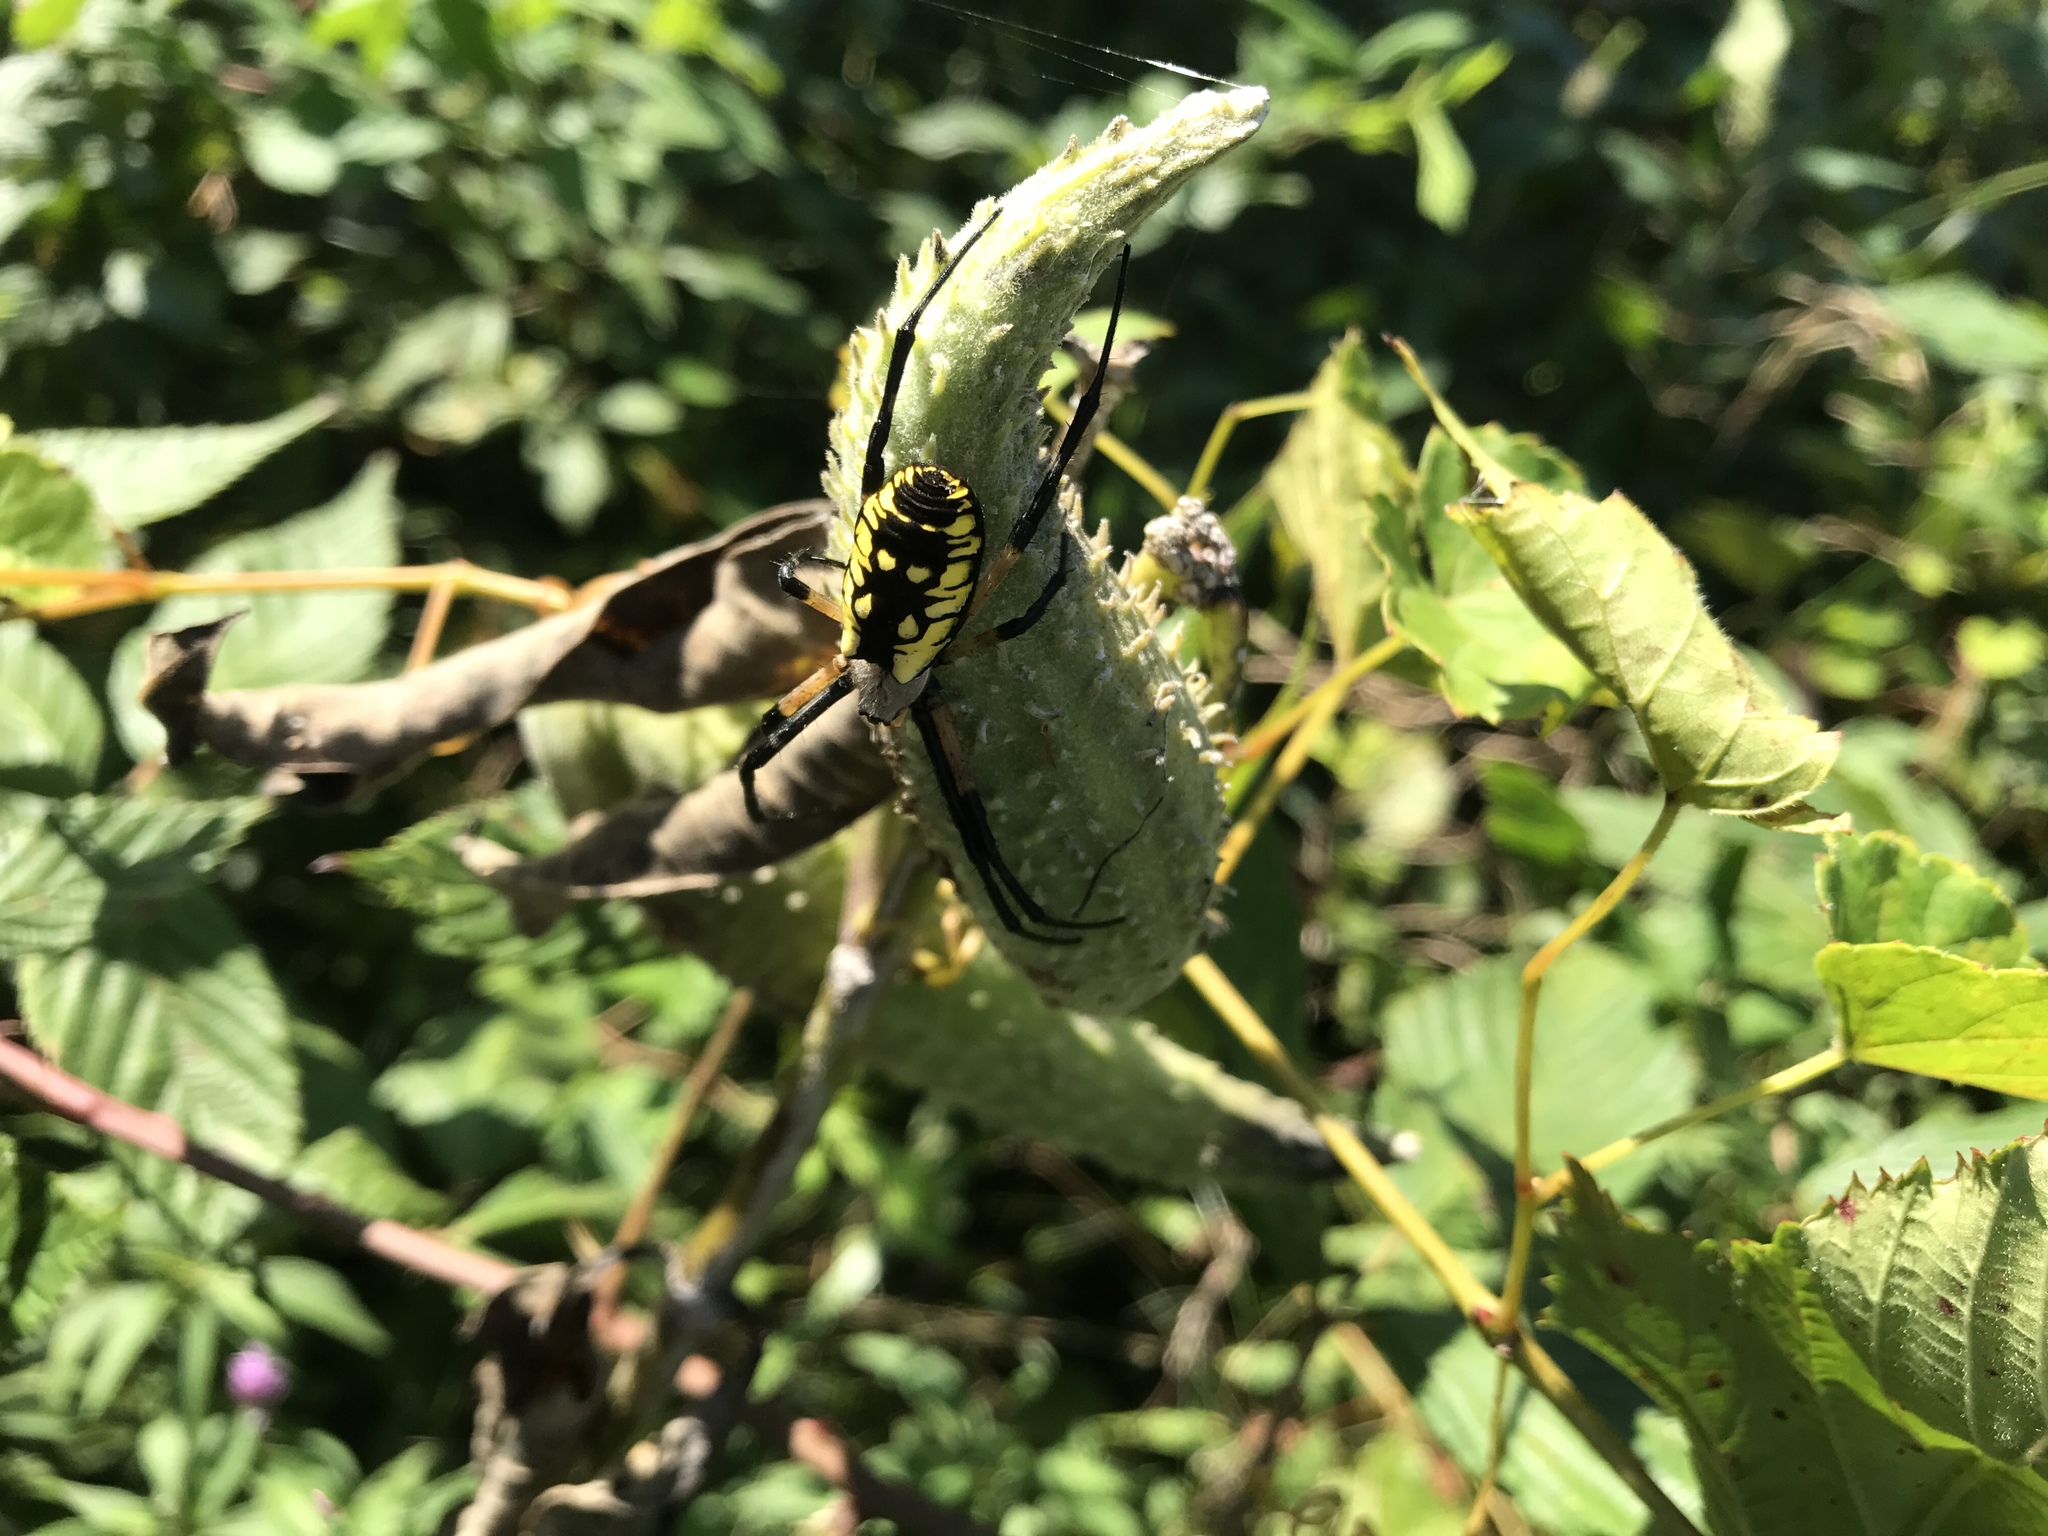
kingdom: Animalia
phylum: Arthropoda
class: Arachnida
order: Araneae
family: Araneidae
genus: Argiope
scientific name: Argiope aurantia
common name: Orb weavers
